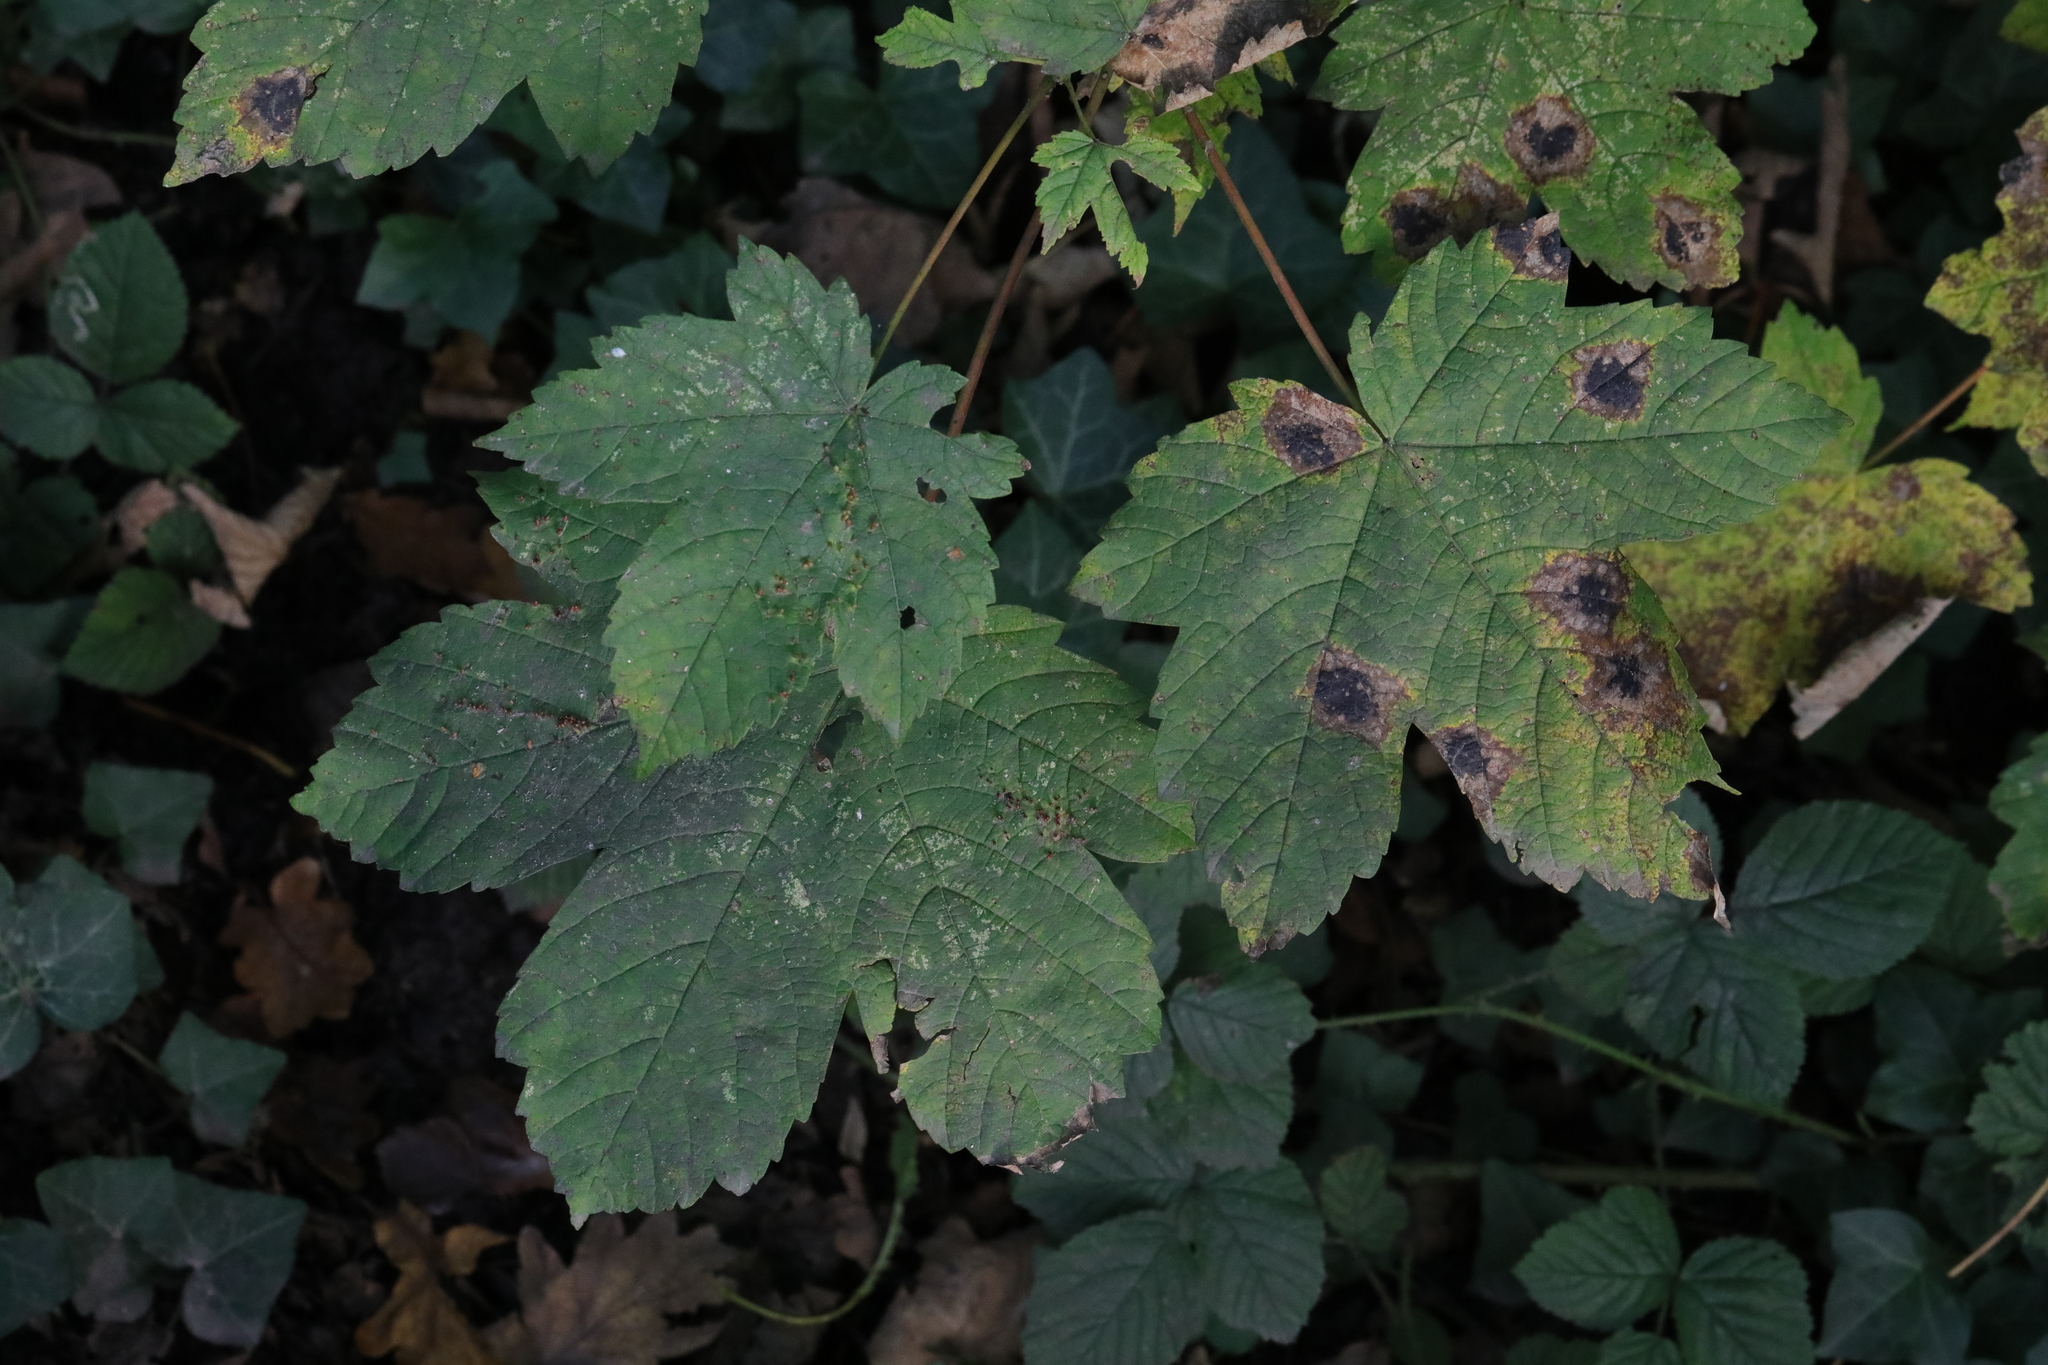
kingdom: Fungi
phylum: Ascomycota
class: Leotiomycetes
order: Rhytismatales
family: Rhytismataceae
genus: Rhytisma
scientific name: Rhytisma acerinum
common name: European tar spot
